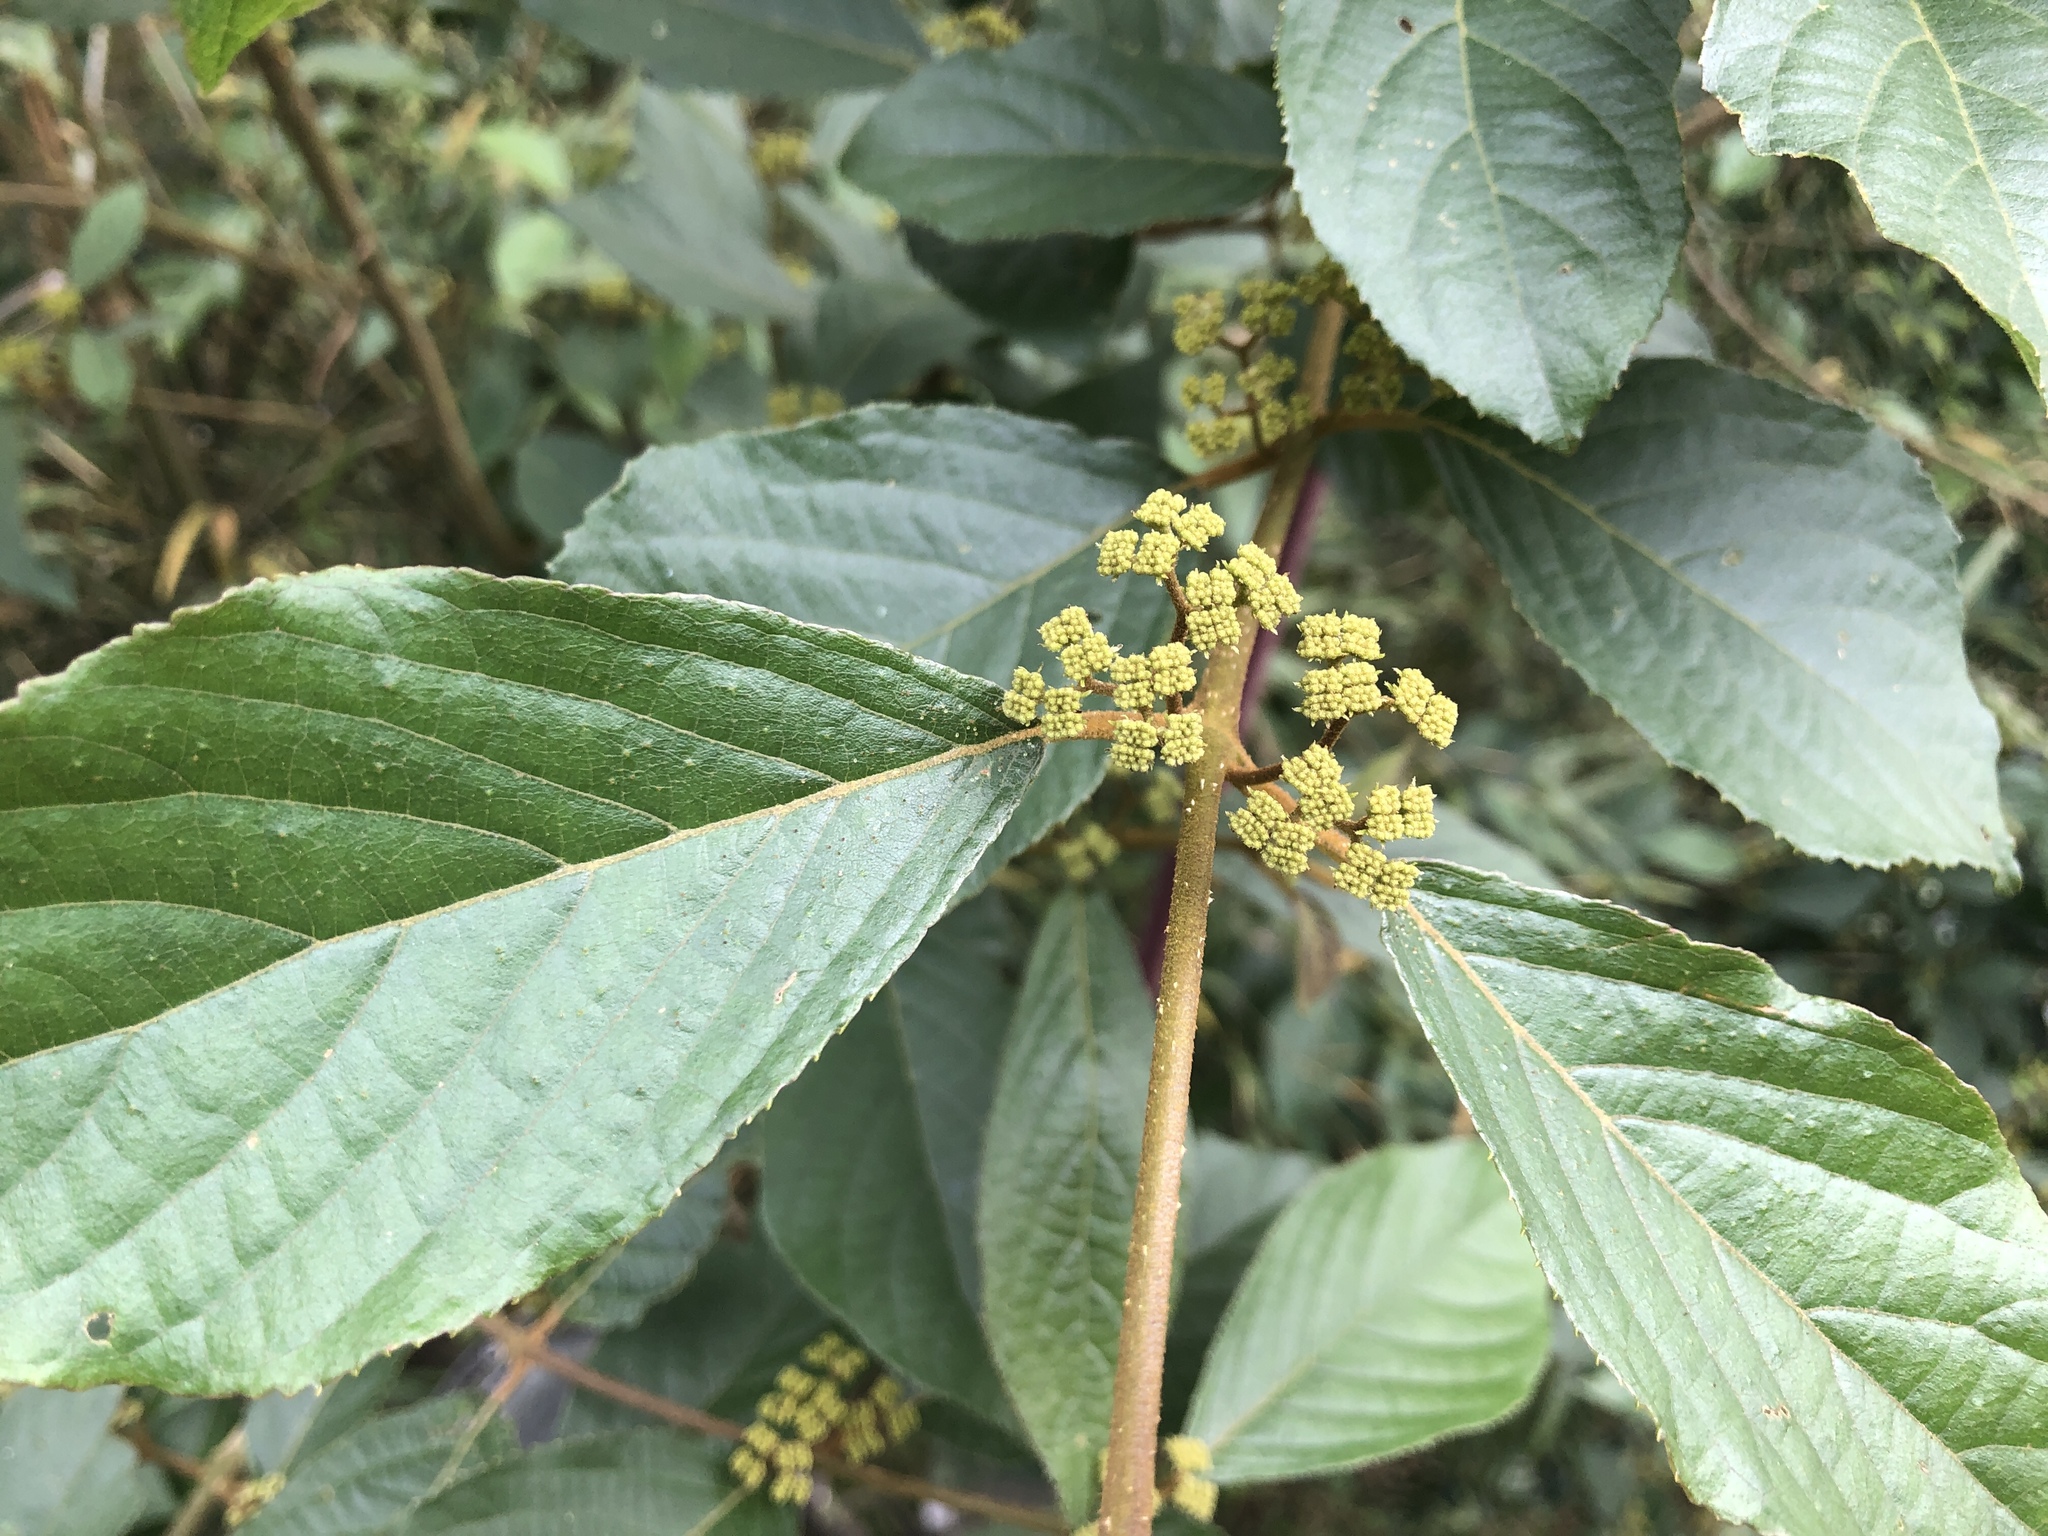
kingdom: Plantae
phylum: Tracheophyta
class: Magnoliopsida
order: Lamiales
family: Lamiaceae
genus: Callicarpa
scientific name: Callicarpa pedunculata
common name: Velvetleaf
